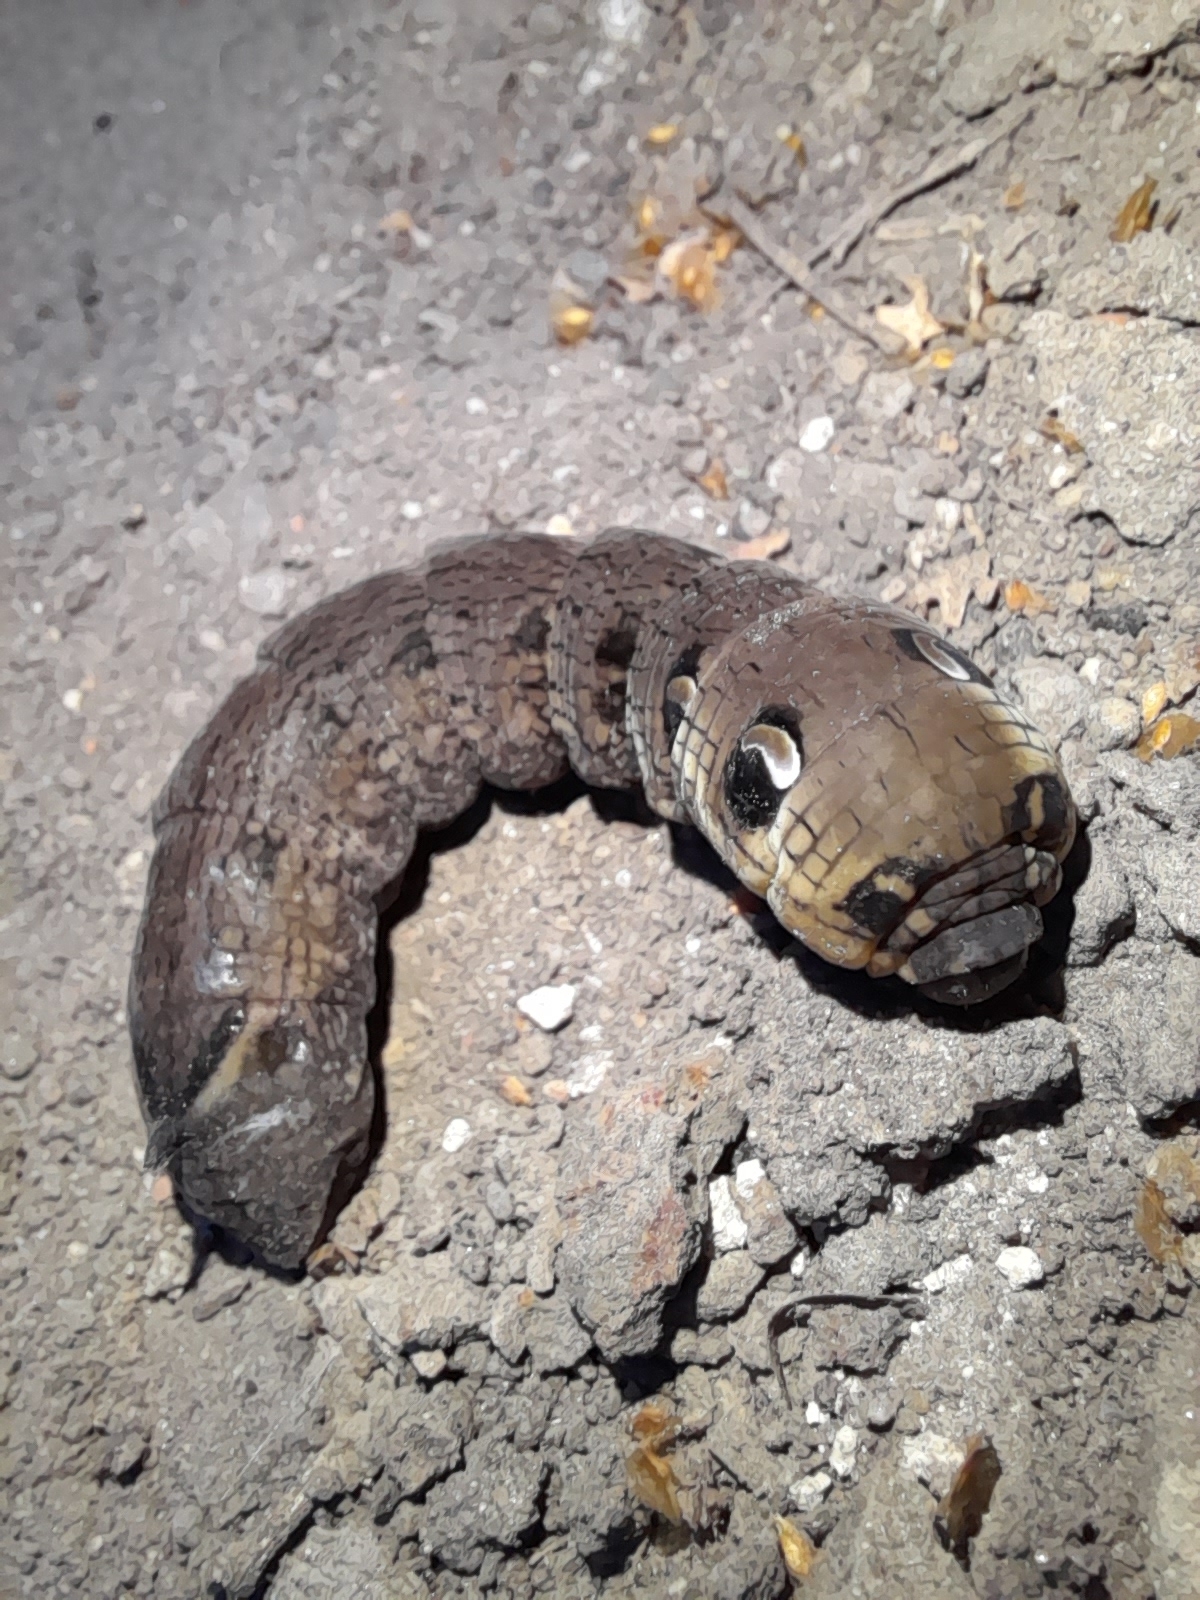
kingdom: Animalia
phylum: Arthropoda
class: Insecta
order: Lepidoptera
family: Sphingidae
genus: Deilephila
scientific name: Deilephila elpenor
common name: Elephant hawk-moth
